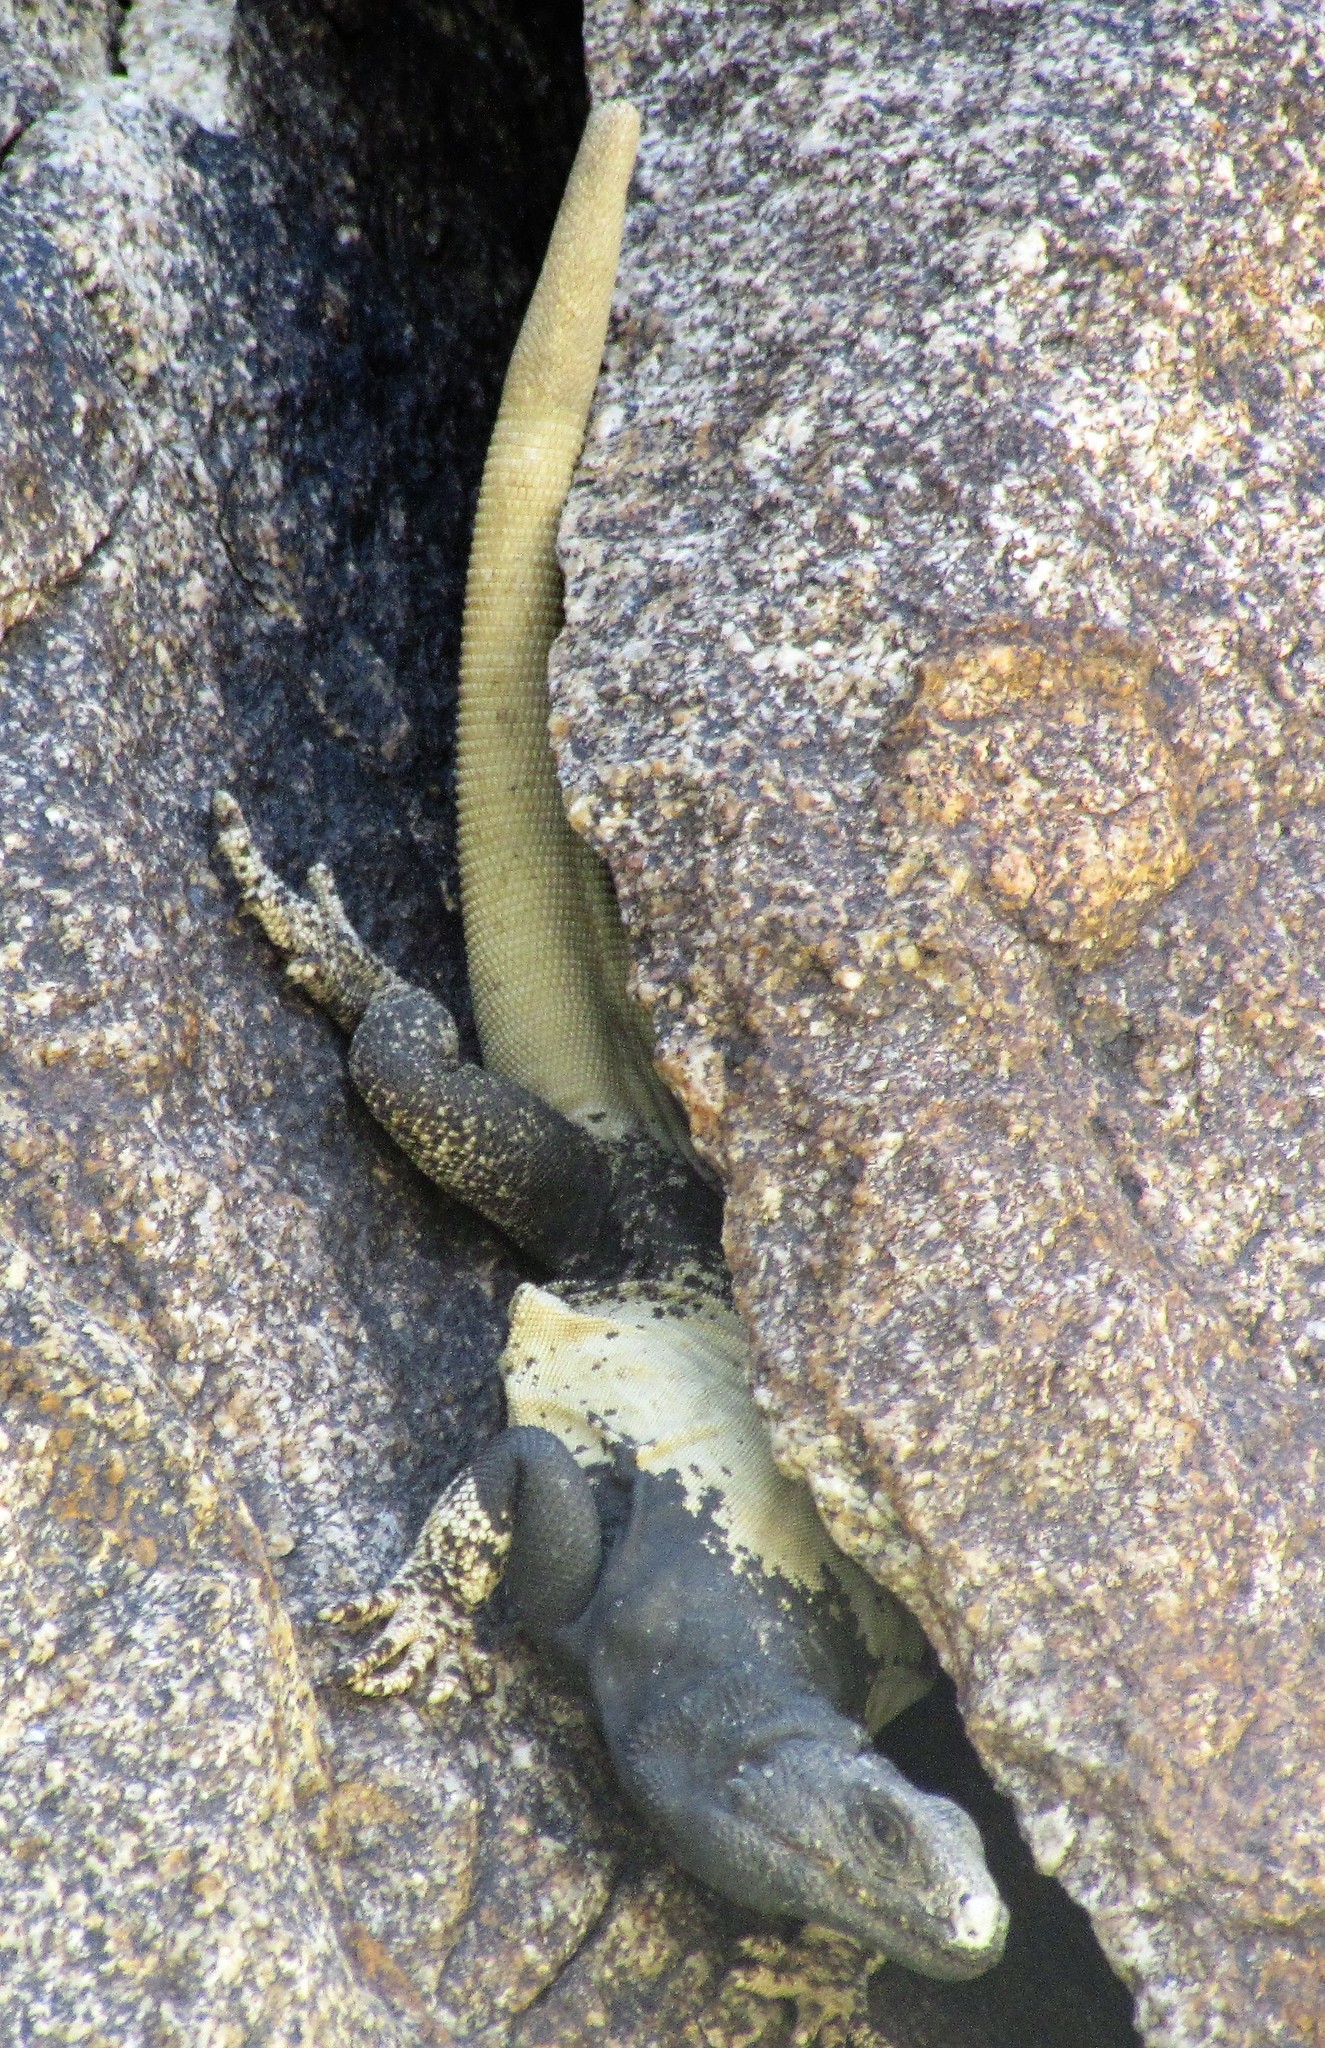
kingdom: Animalia
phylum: Chordata
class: Squamata
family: Iguanidae
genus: Sauromalus
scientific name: Sauromalus ater
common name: Northern chuckwalla
